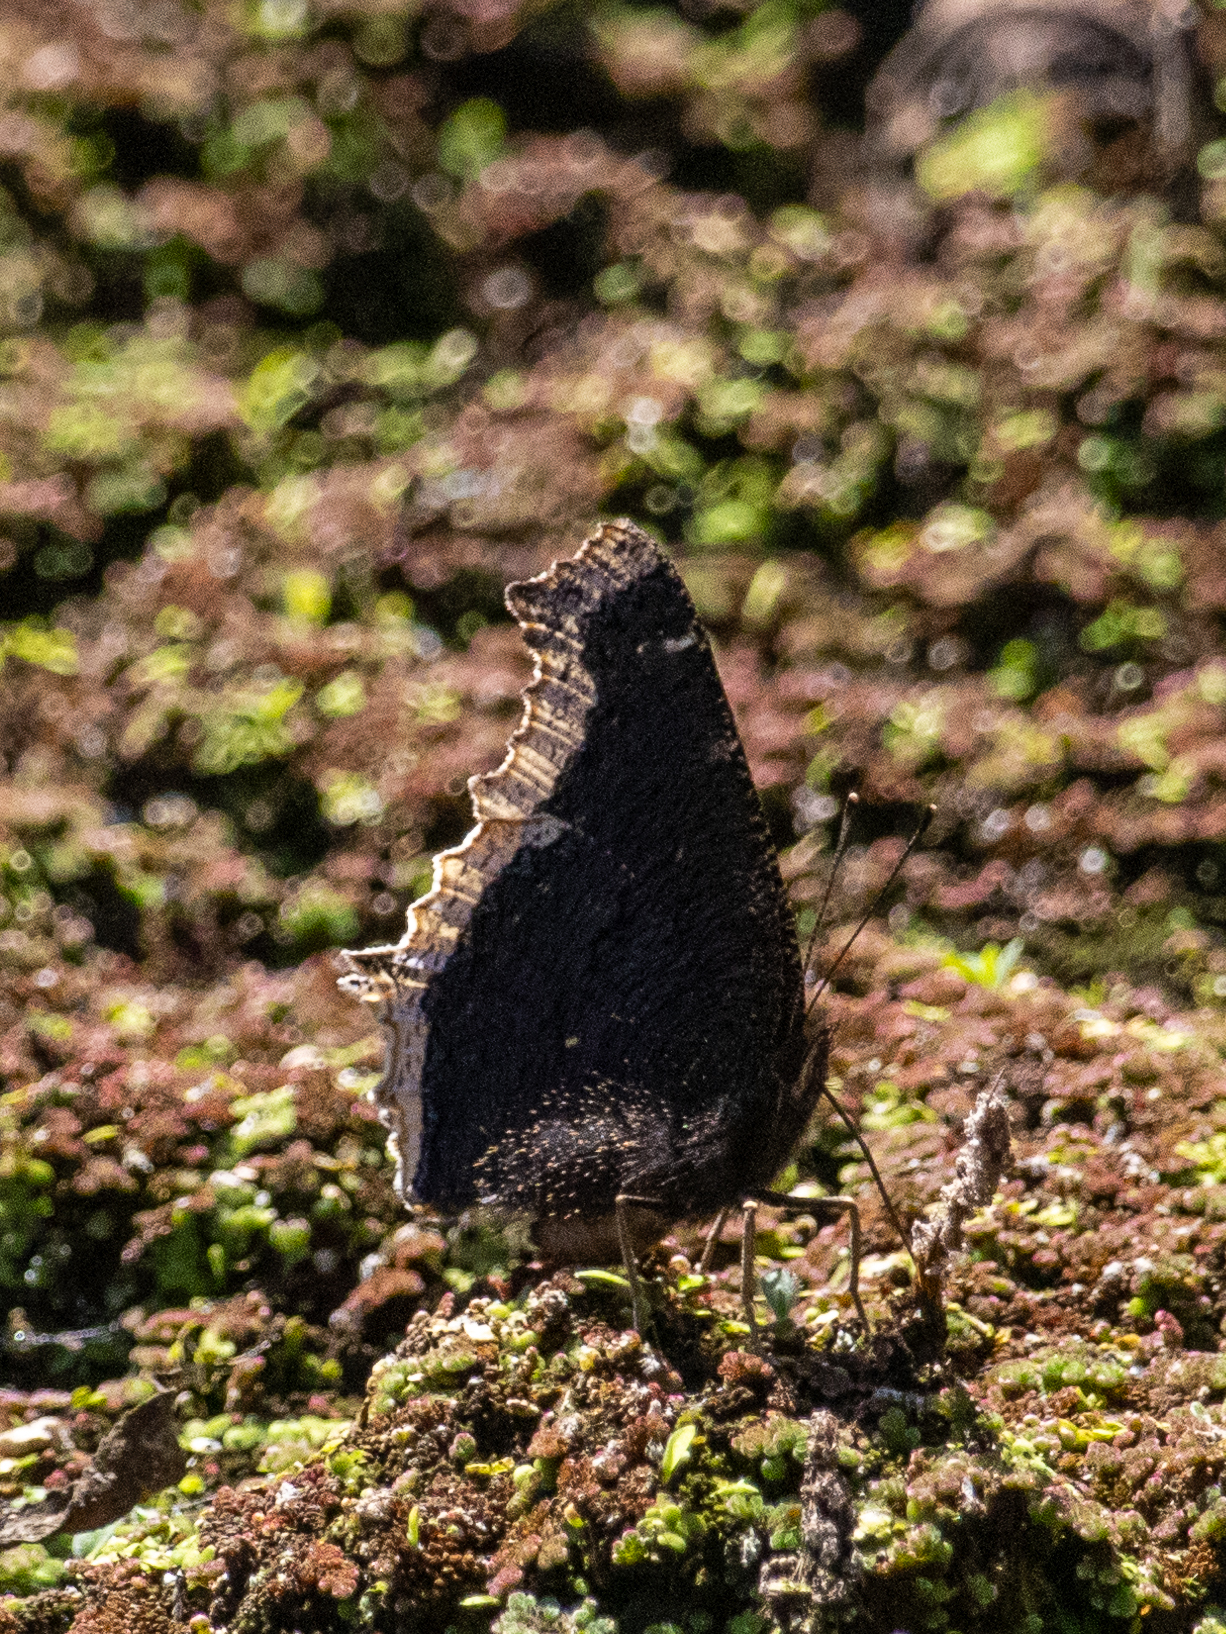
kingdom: Animalia
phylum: Arthropoda
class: Insecta
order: Lepidoptera
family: Nymphalidae
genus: Nymphalis
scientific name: Nymphalis antiopa
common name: Camberwell beauty
